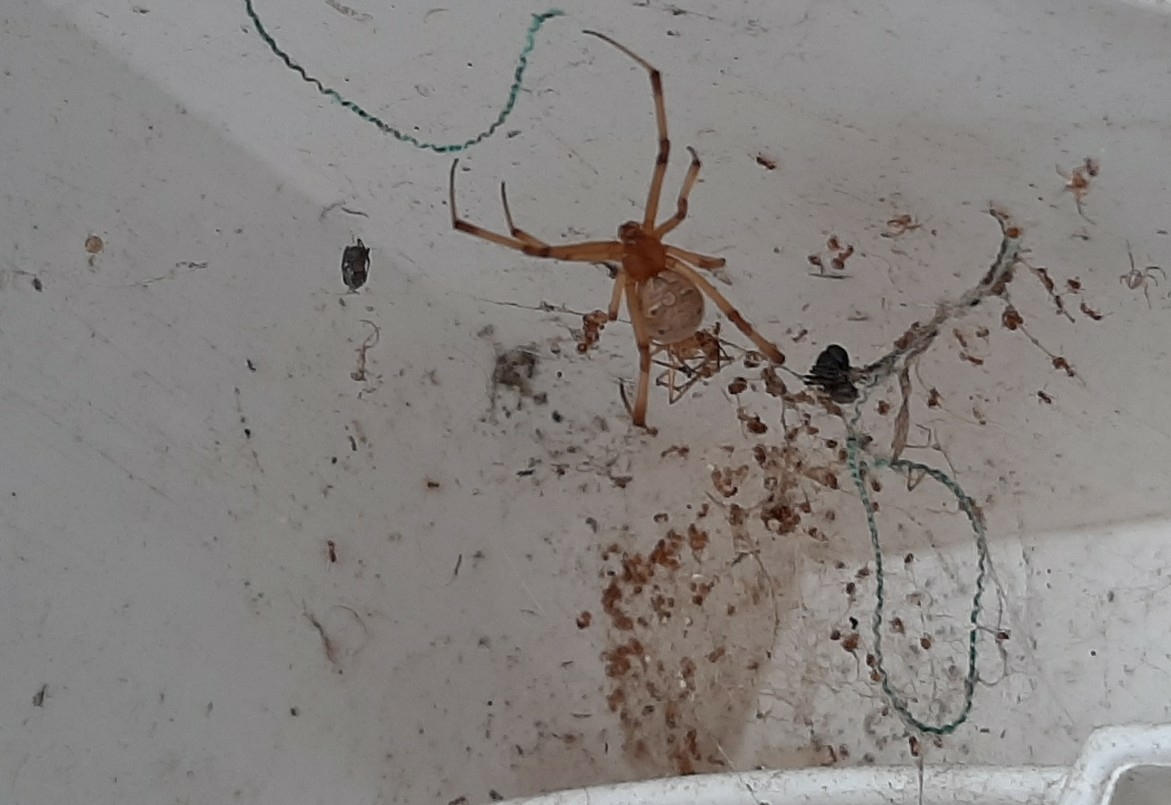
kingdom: Animalia
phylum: Arthropoda
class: Arachnida
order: Araneae
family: Theridiidae
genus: Latrodectus
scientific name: Latrodectus geometricus
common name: Brown widow spider
